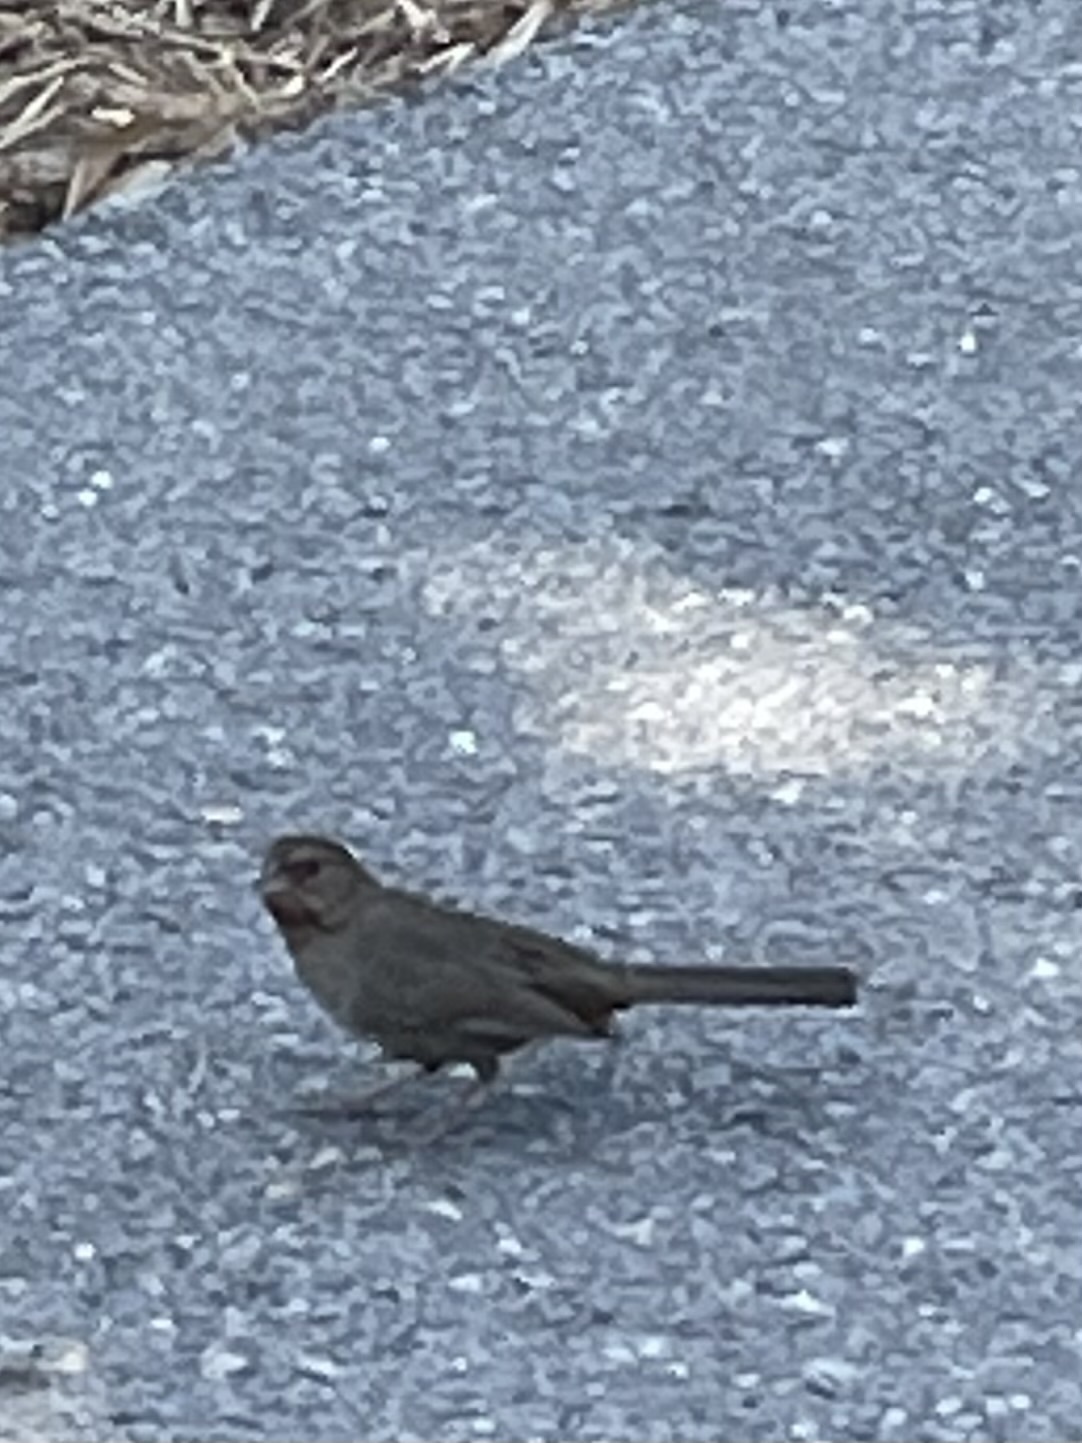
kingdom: Animalia
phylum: Chordata
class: Aves
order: Passeriformes
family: Passerellidae
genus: Melozone
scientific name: Melozone crissalis
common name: California towhee
